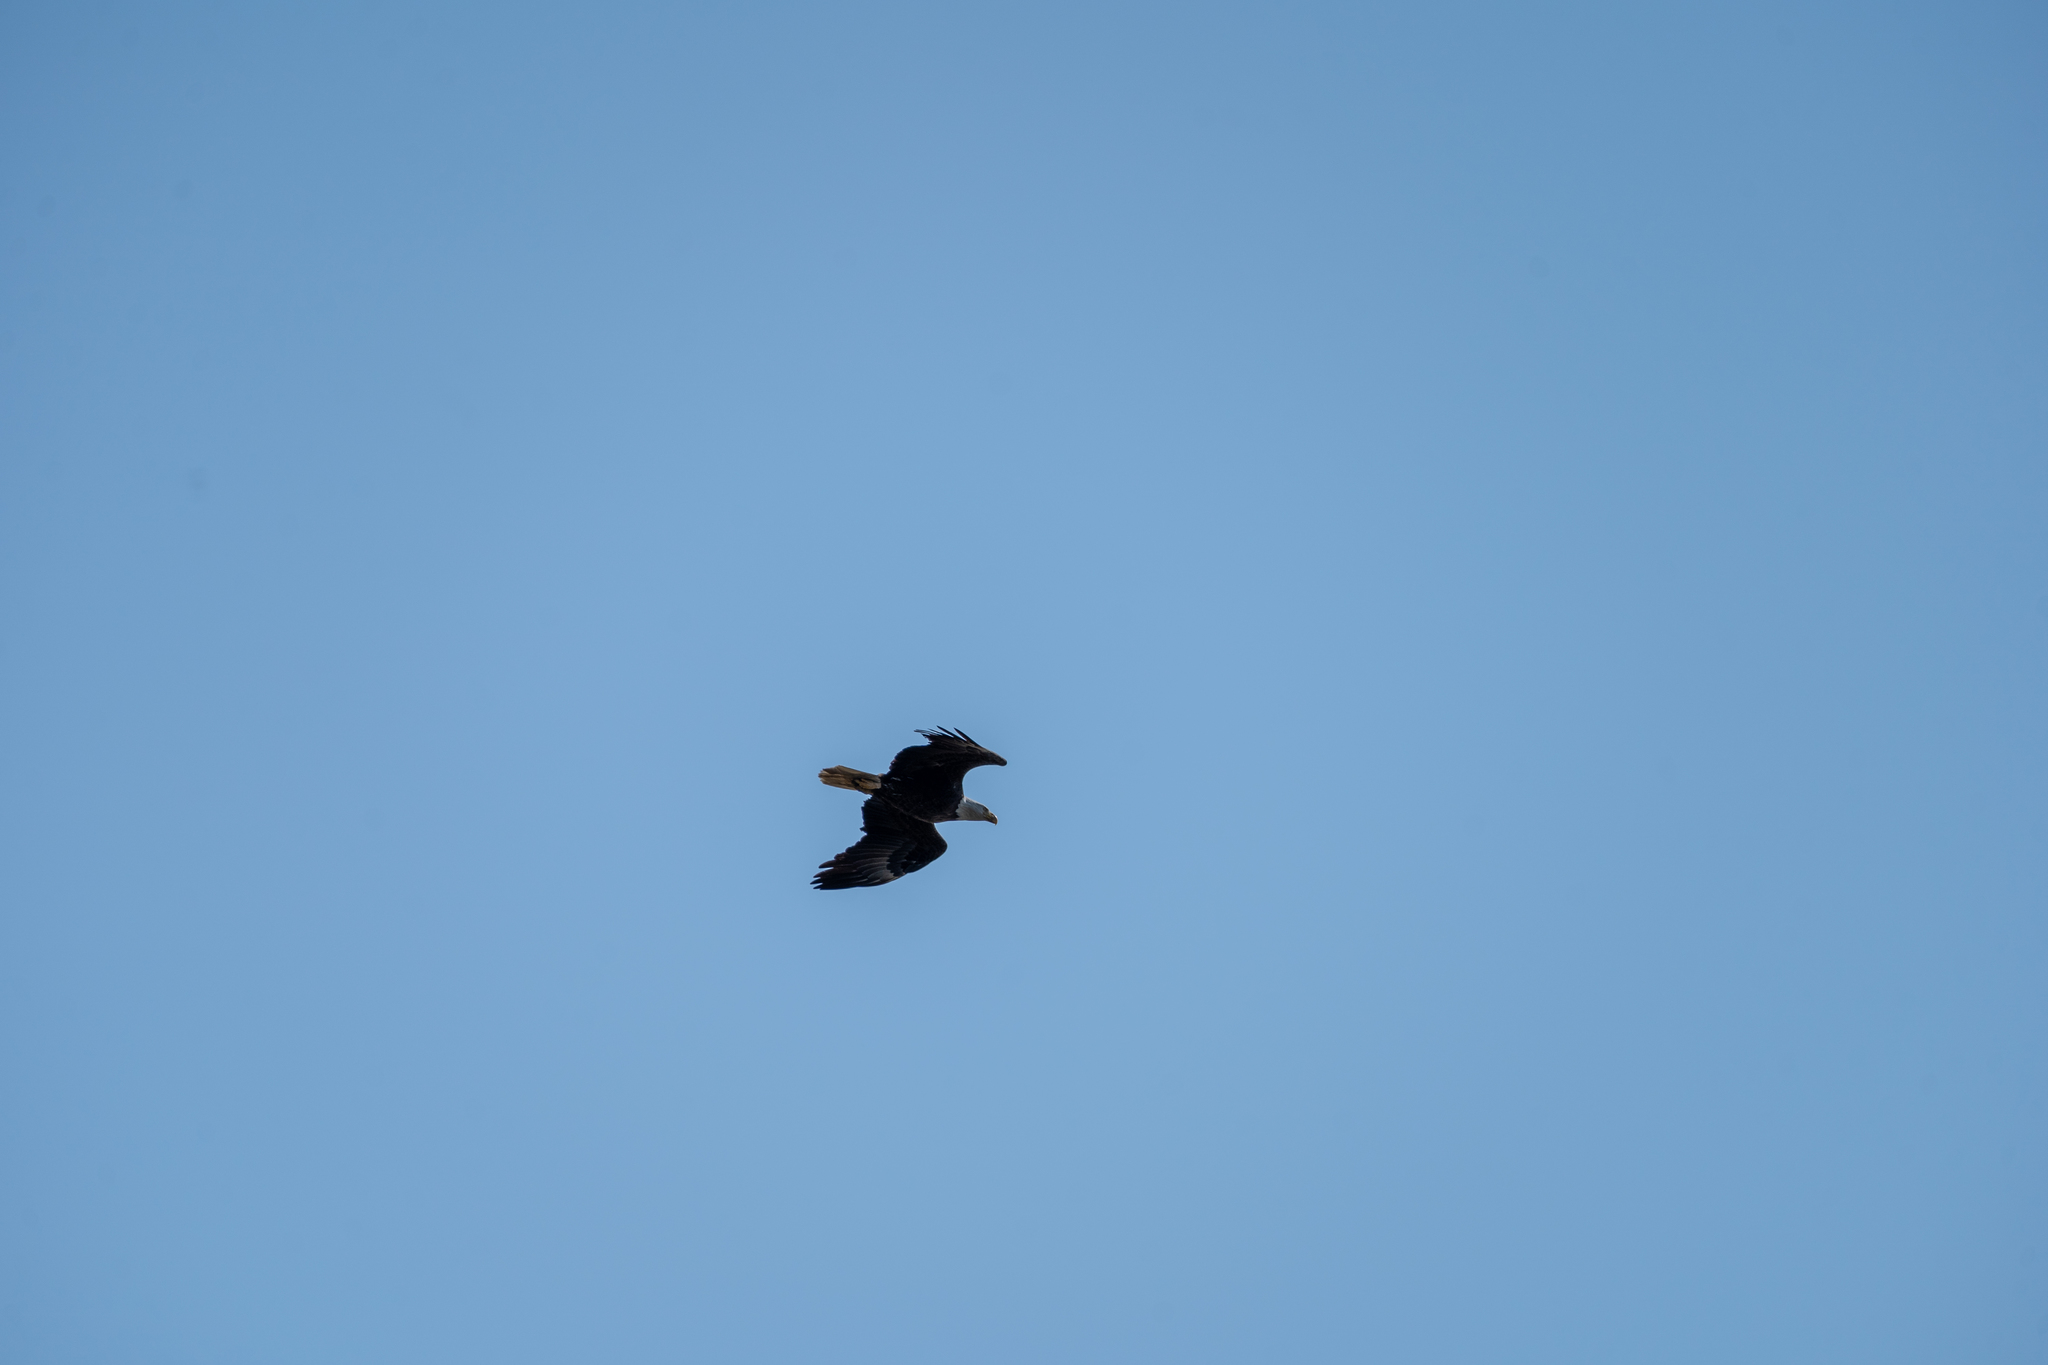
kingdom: Animalia
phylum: Chordata
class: Aves
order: Accipitriformes
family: Accipitridae
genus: Haliaeetus
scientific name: Haliaeetus leucocephalus
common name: Bald eagle
